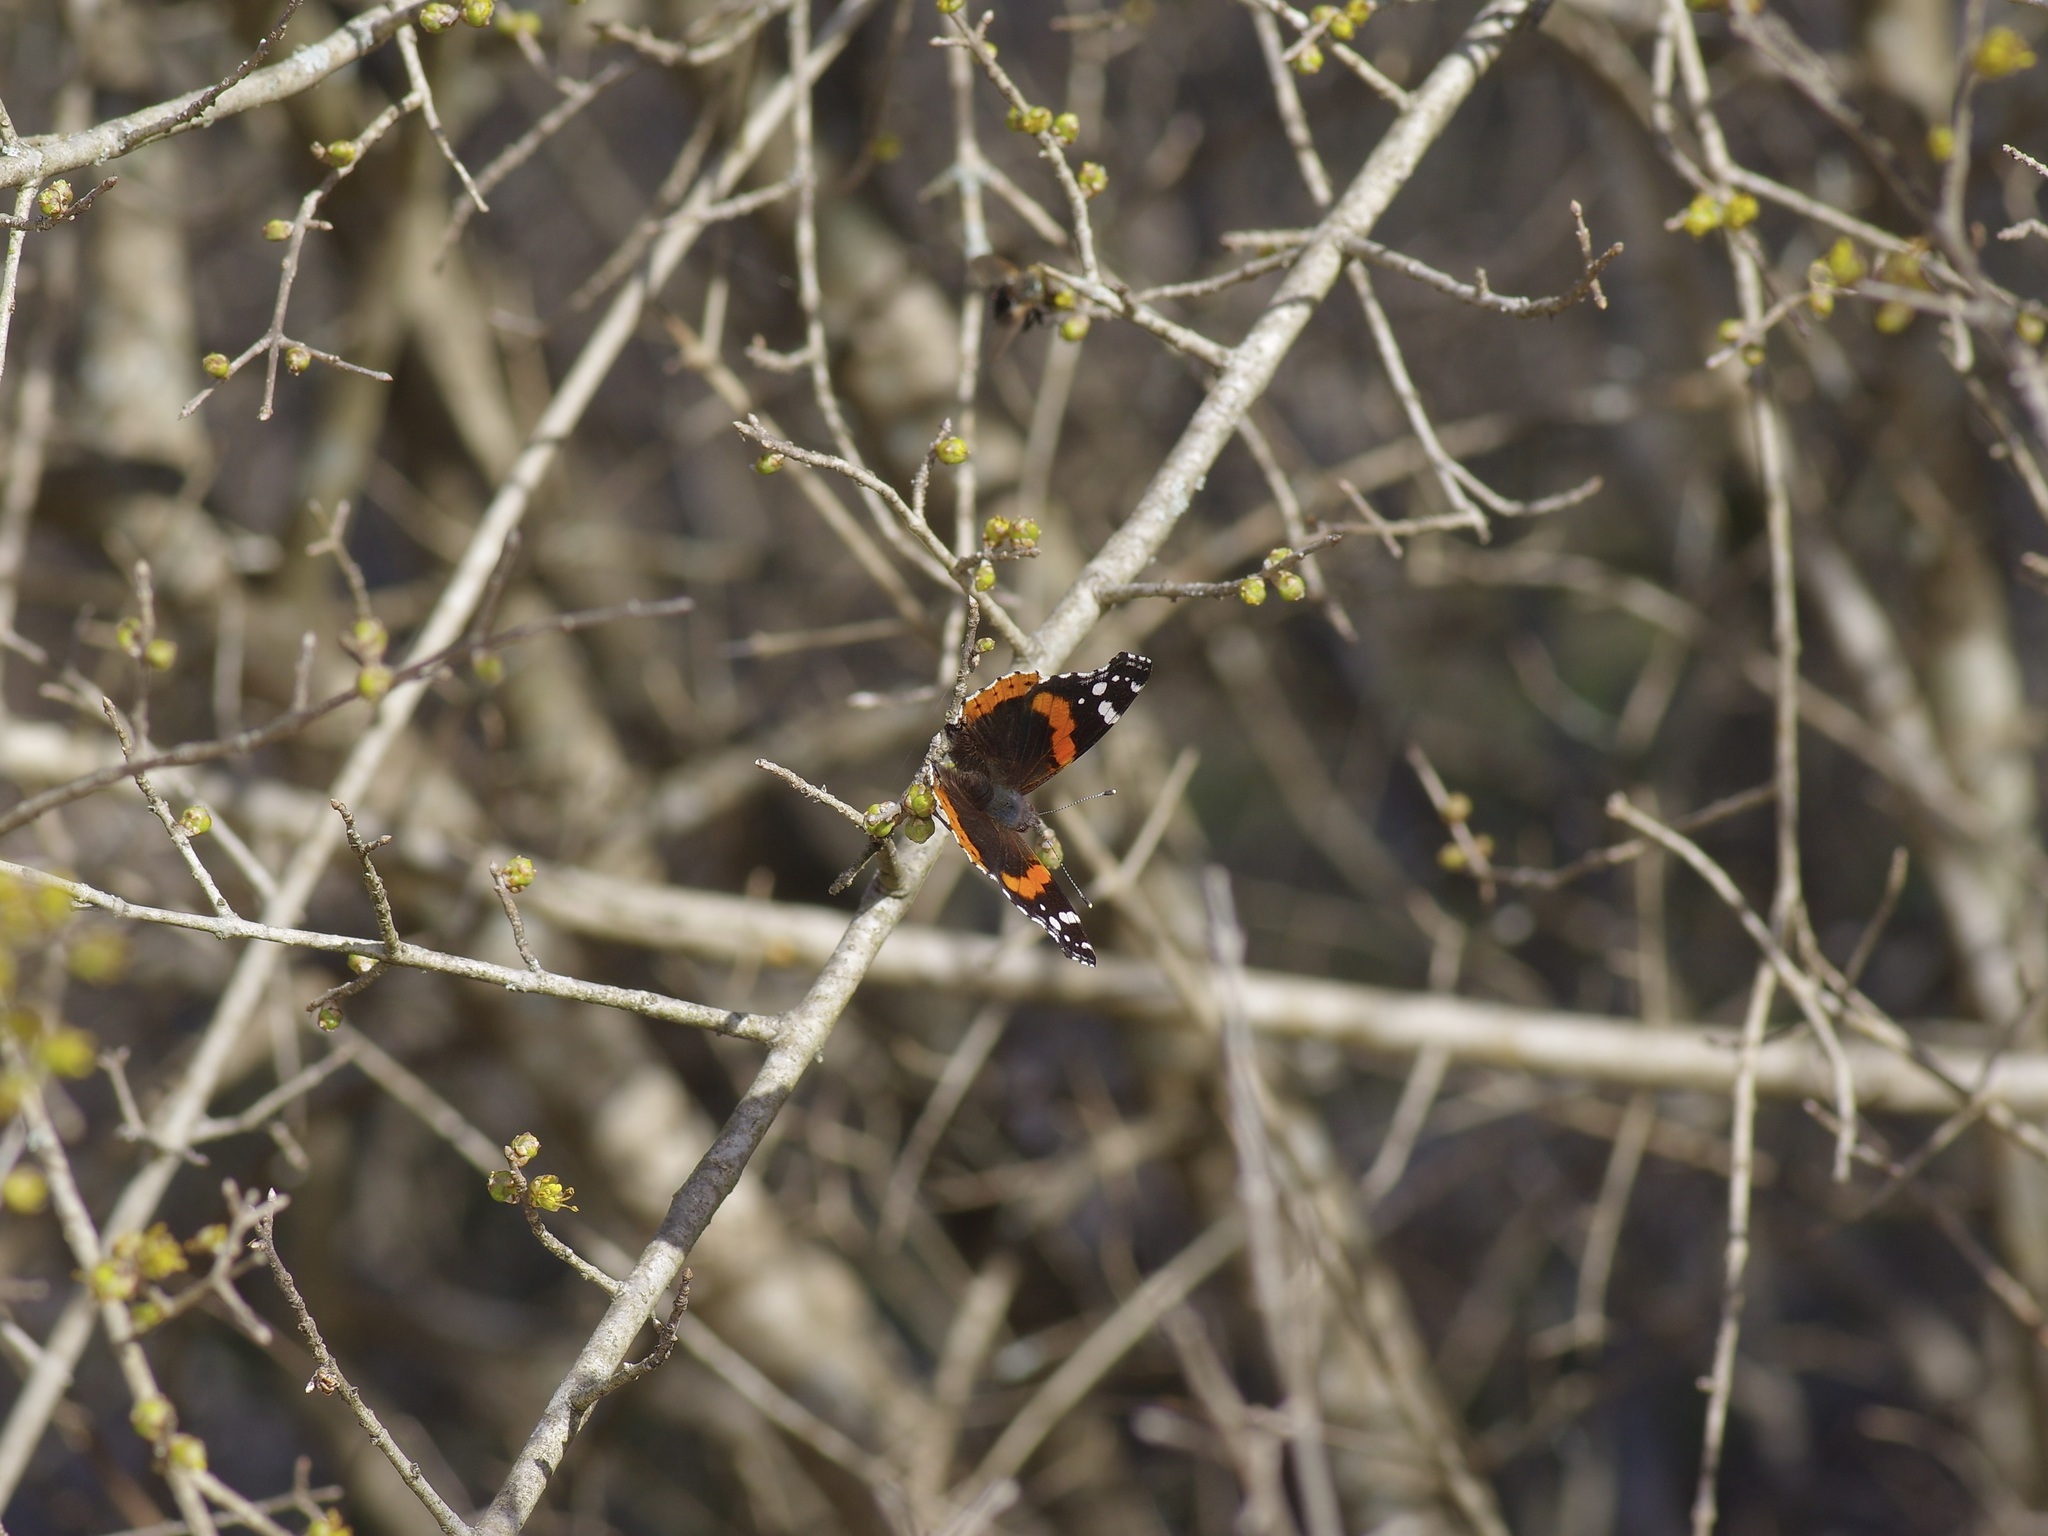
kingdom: Animalia
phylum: Arthropoda
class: Insecta
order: Lepidoptera
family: Nymphalidae
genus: Vanessa
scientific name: Vanessa atalanta
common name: Red admiral
